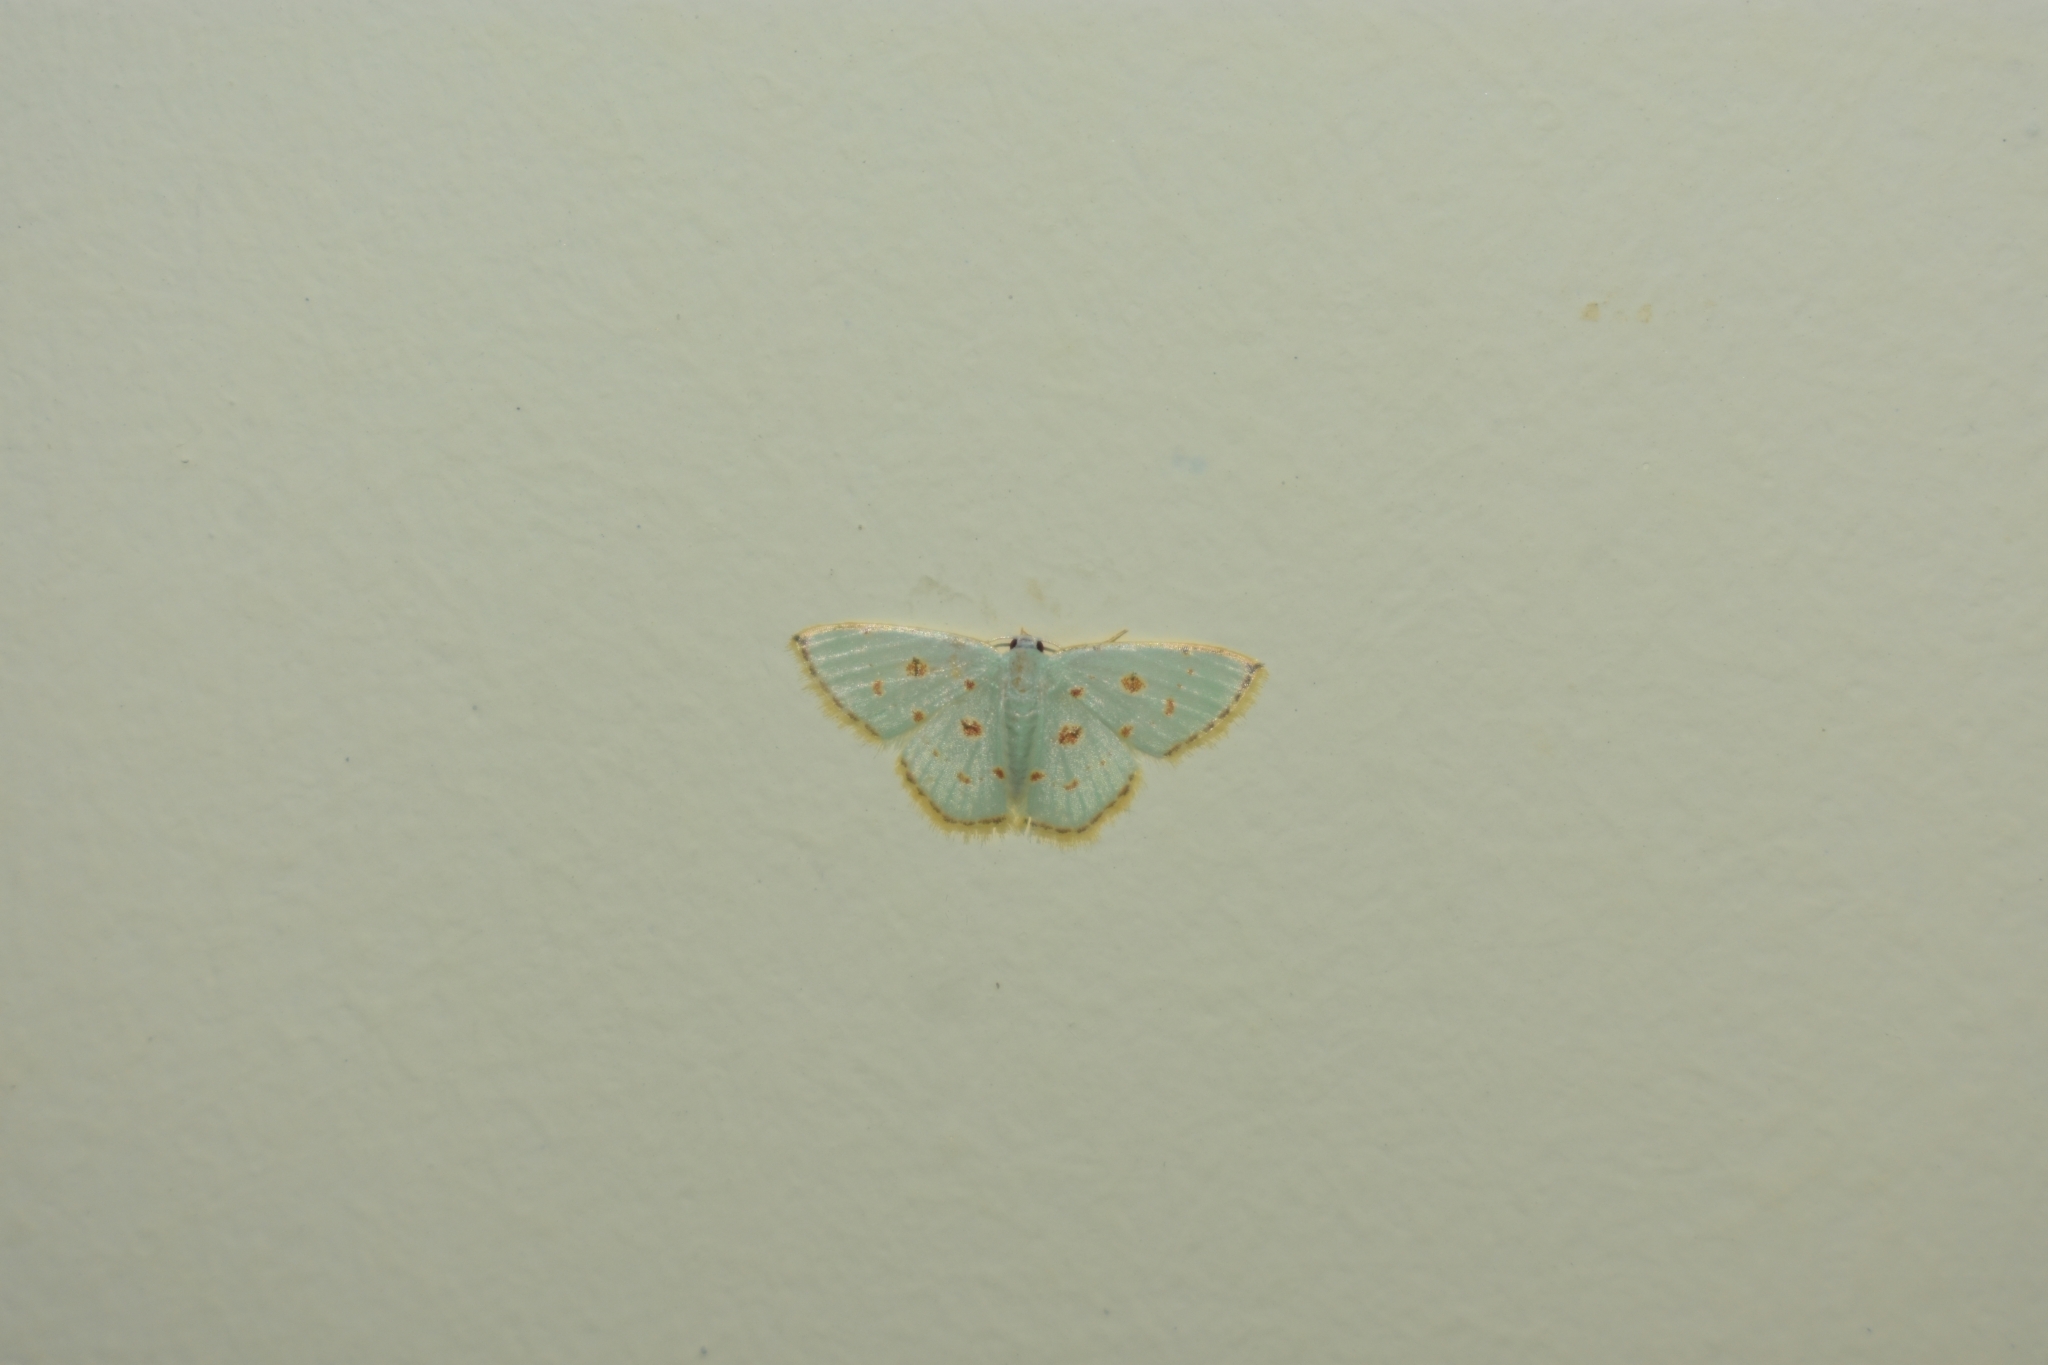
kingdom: Animalia
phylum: Arthropoda
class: Insecta
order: Lepidoptera
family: Geometridae
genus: Comostola
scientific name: Comostola laesaria
